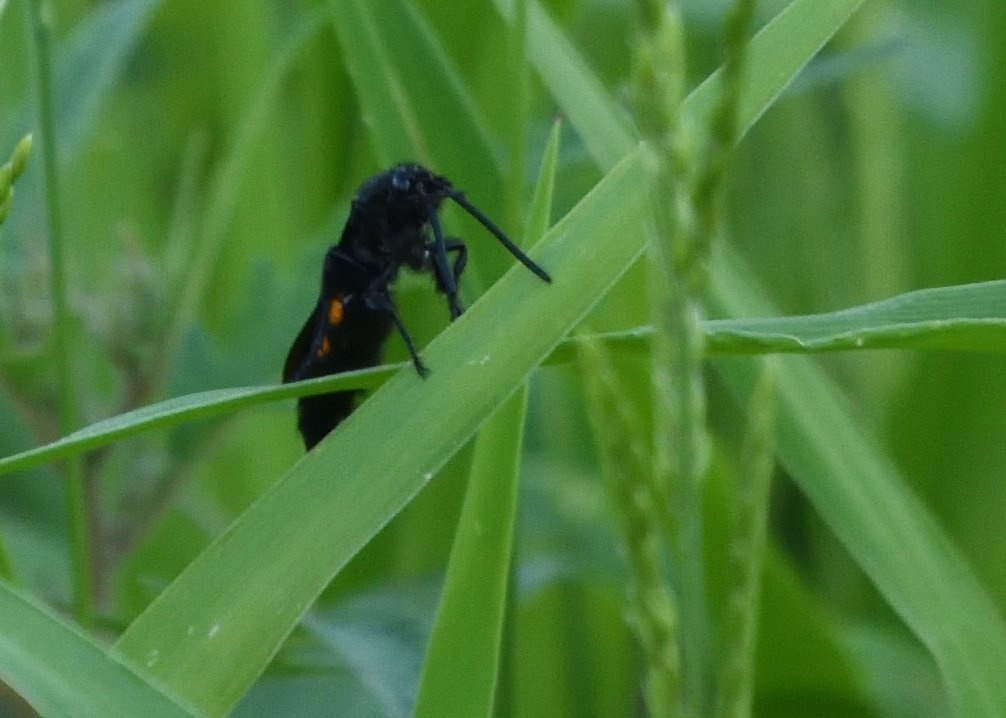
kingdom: Animalia
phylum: Arthropoda
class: Insecta
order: Hymenoptera
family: Scoliidae
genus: Pygodasis
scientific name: Pygodasis ephippium
